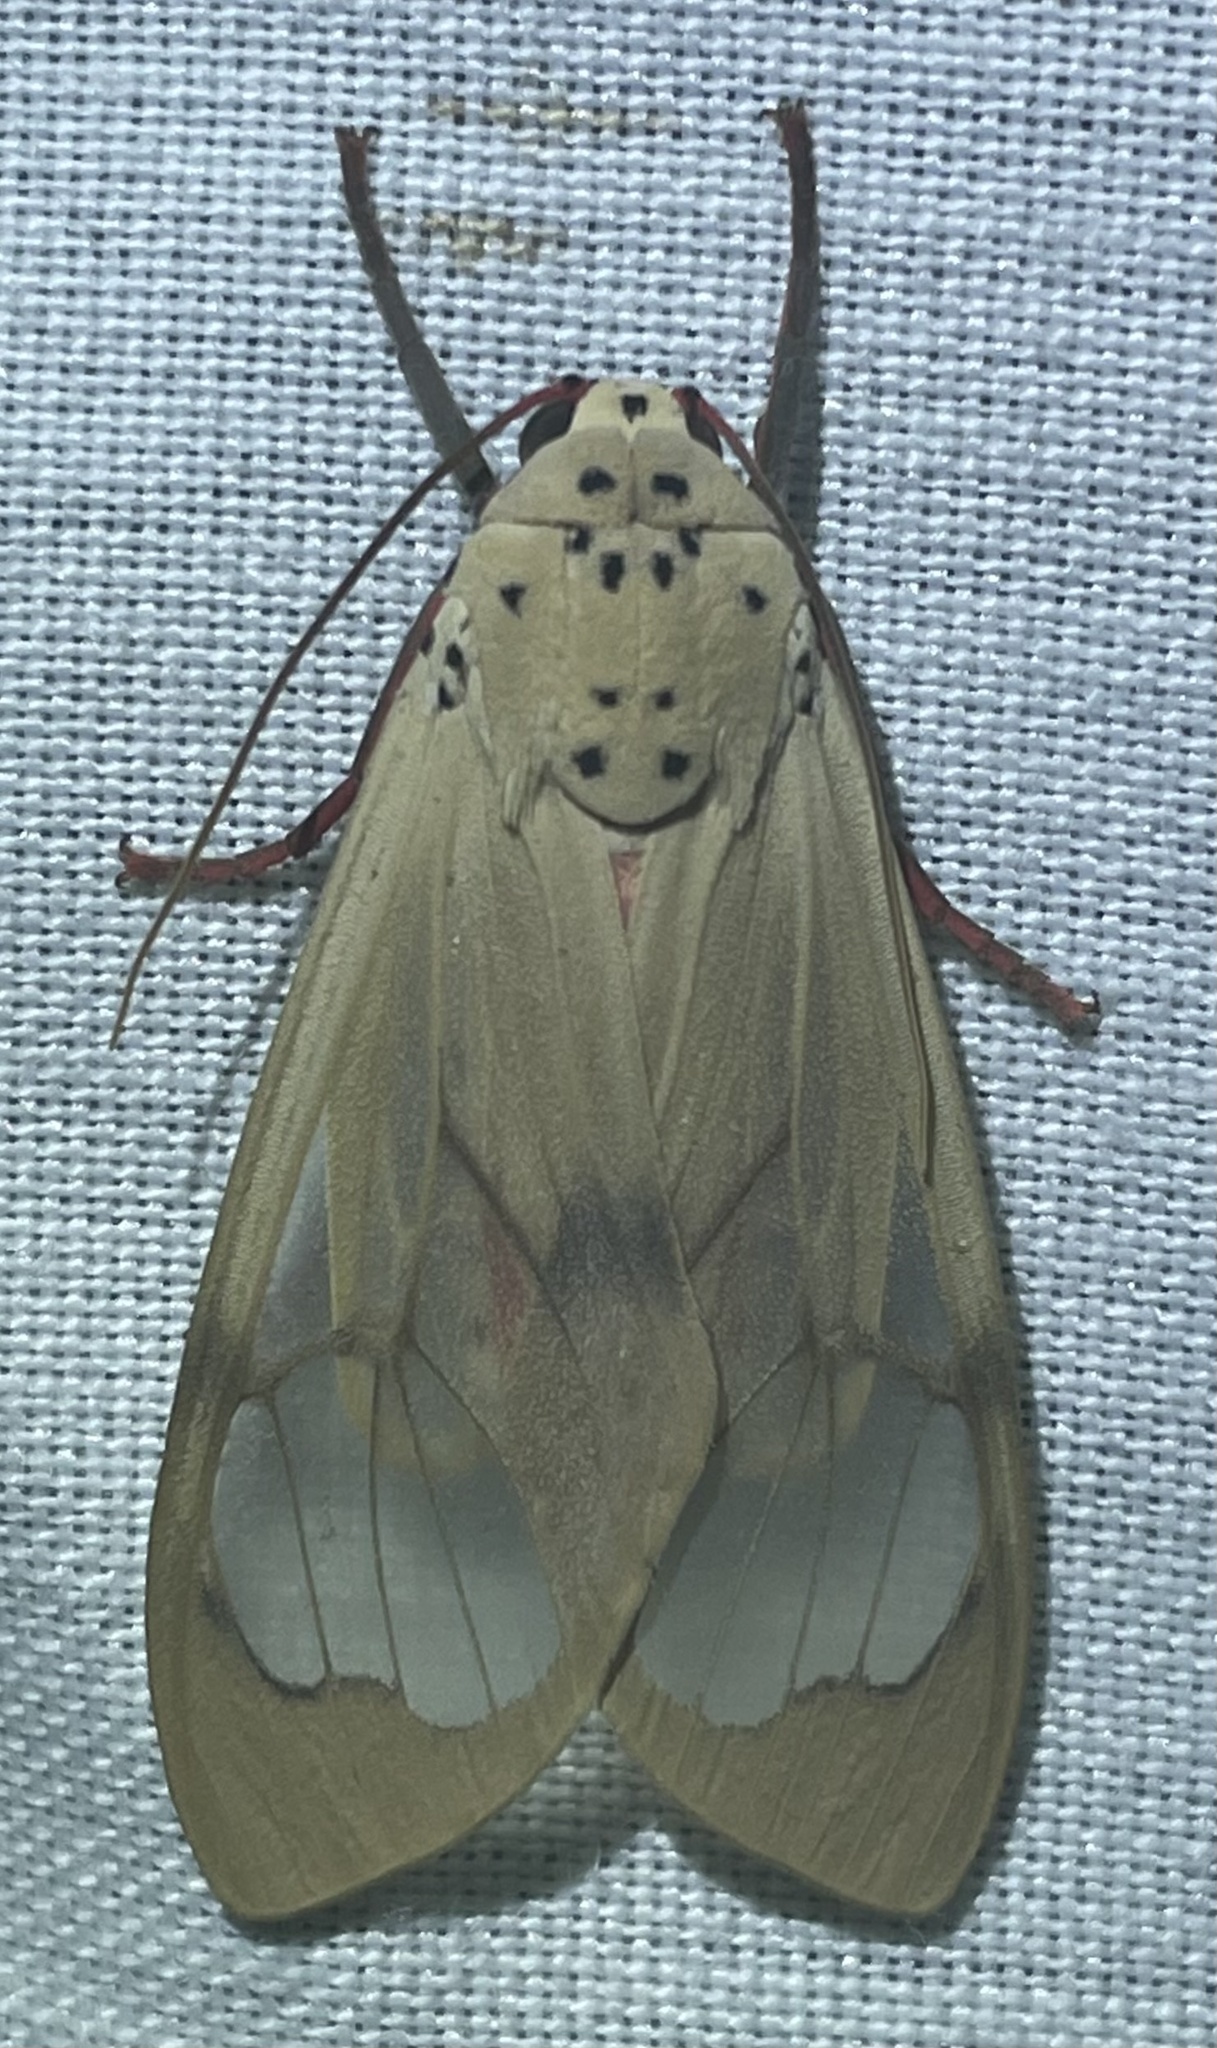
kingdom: Animalia
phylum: Arthropoda
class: Insecta
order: Lepidoptera
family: Erebidae
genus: Amerila
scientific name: Amerila bauri
